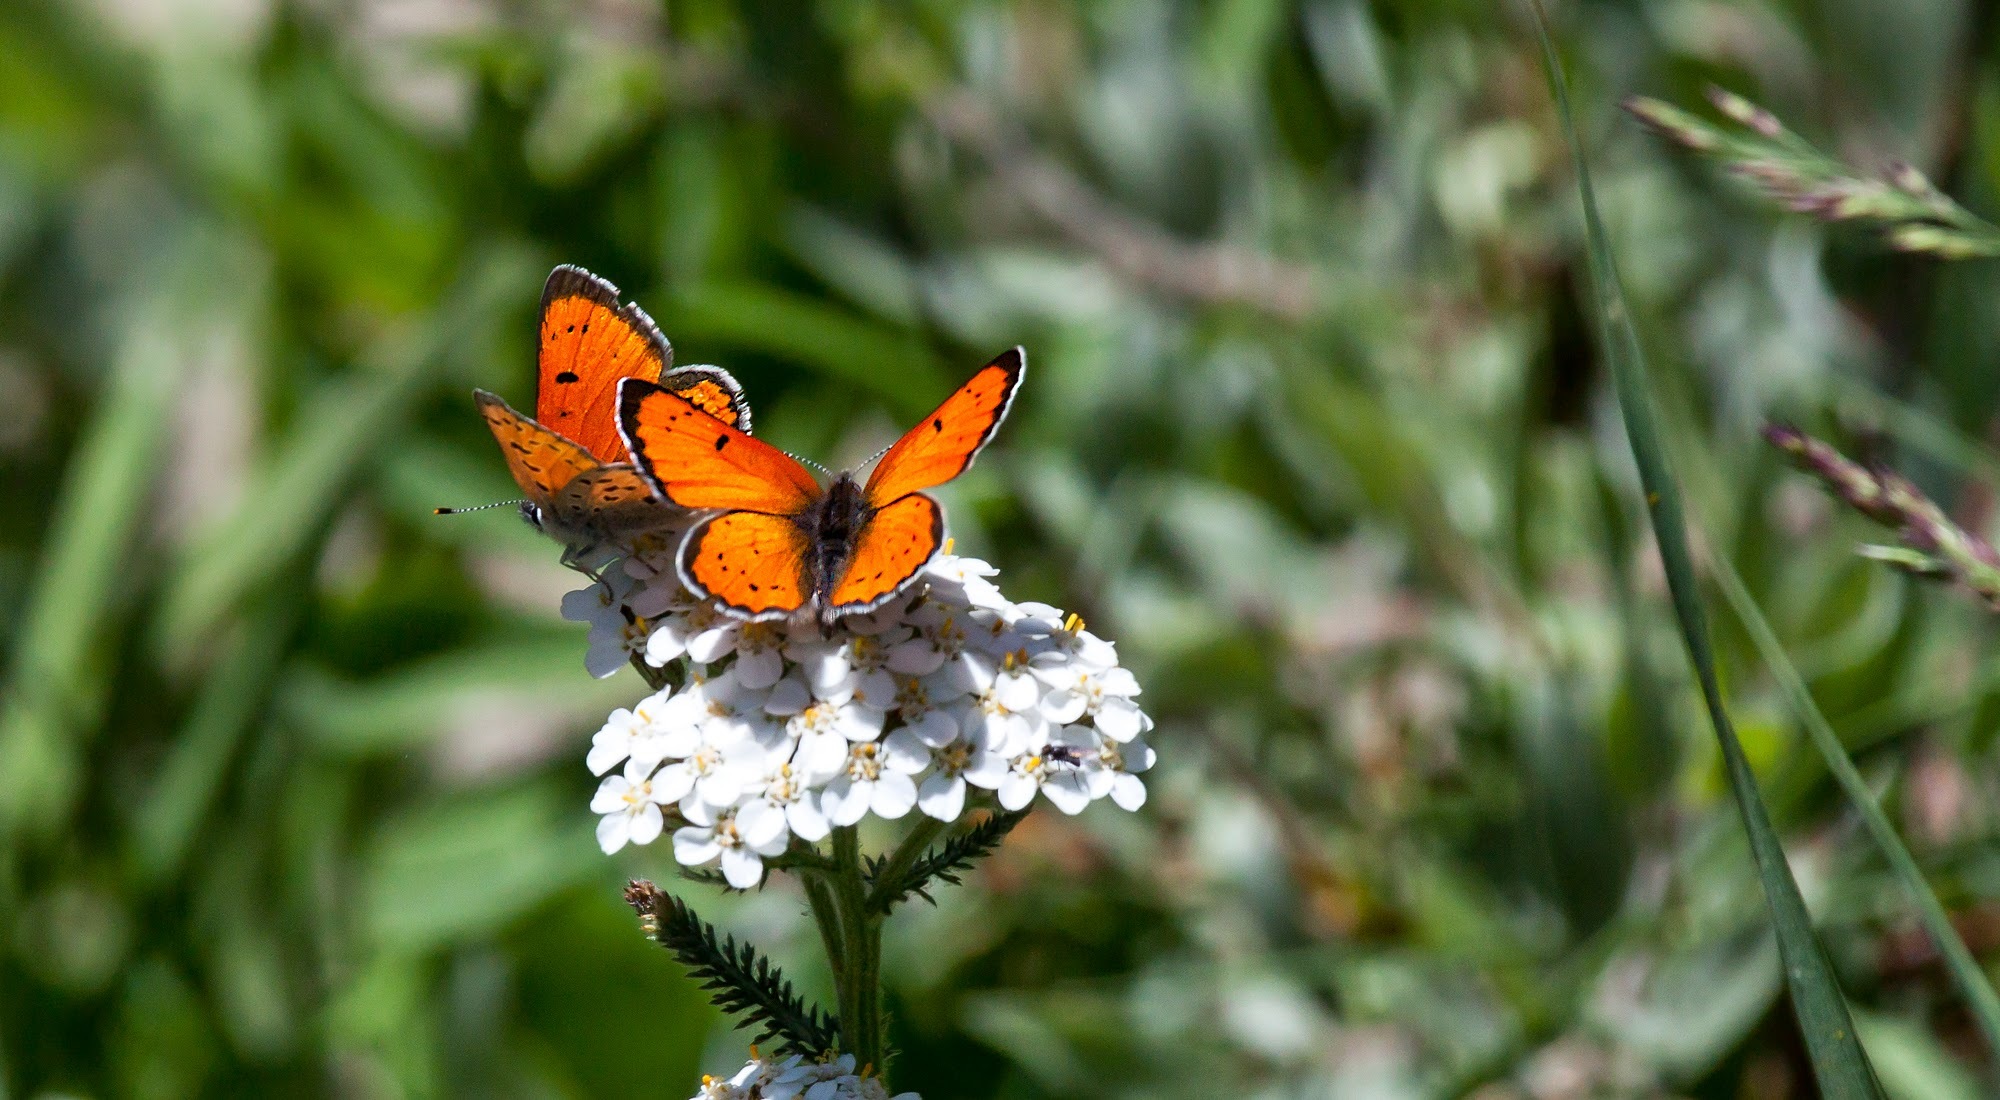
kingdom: Animalia
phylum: Arthropoda
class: Insecta
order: Lepidoptera
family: Lycaenidae
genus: Lycaena
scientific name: Lycaena cupreus
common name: Lustrous copper
